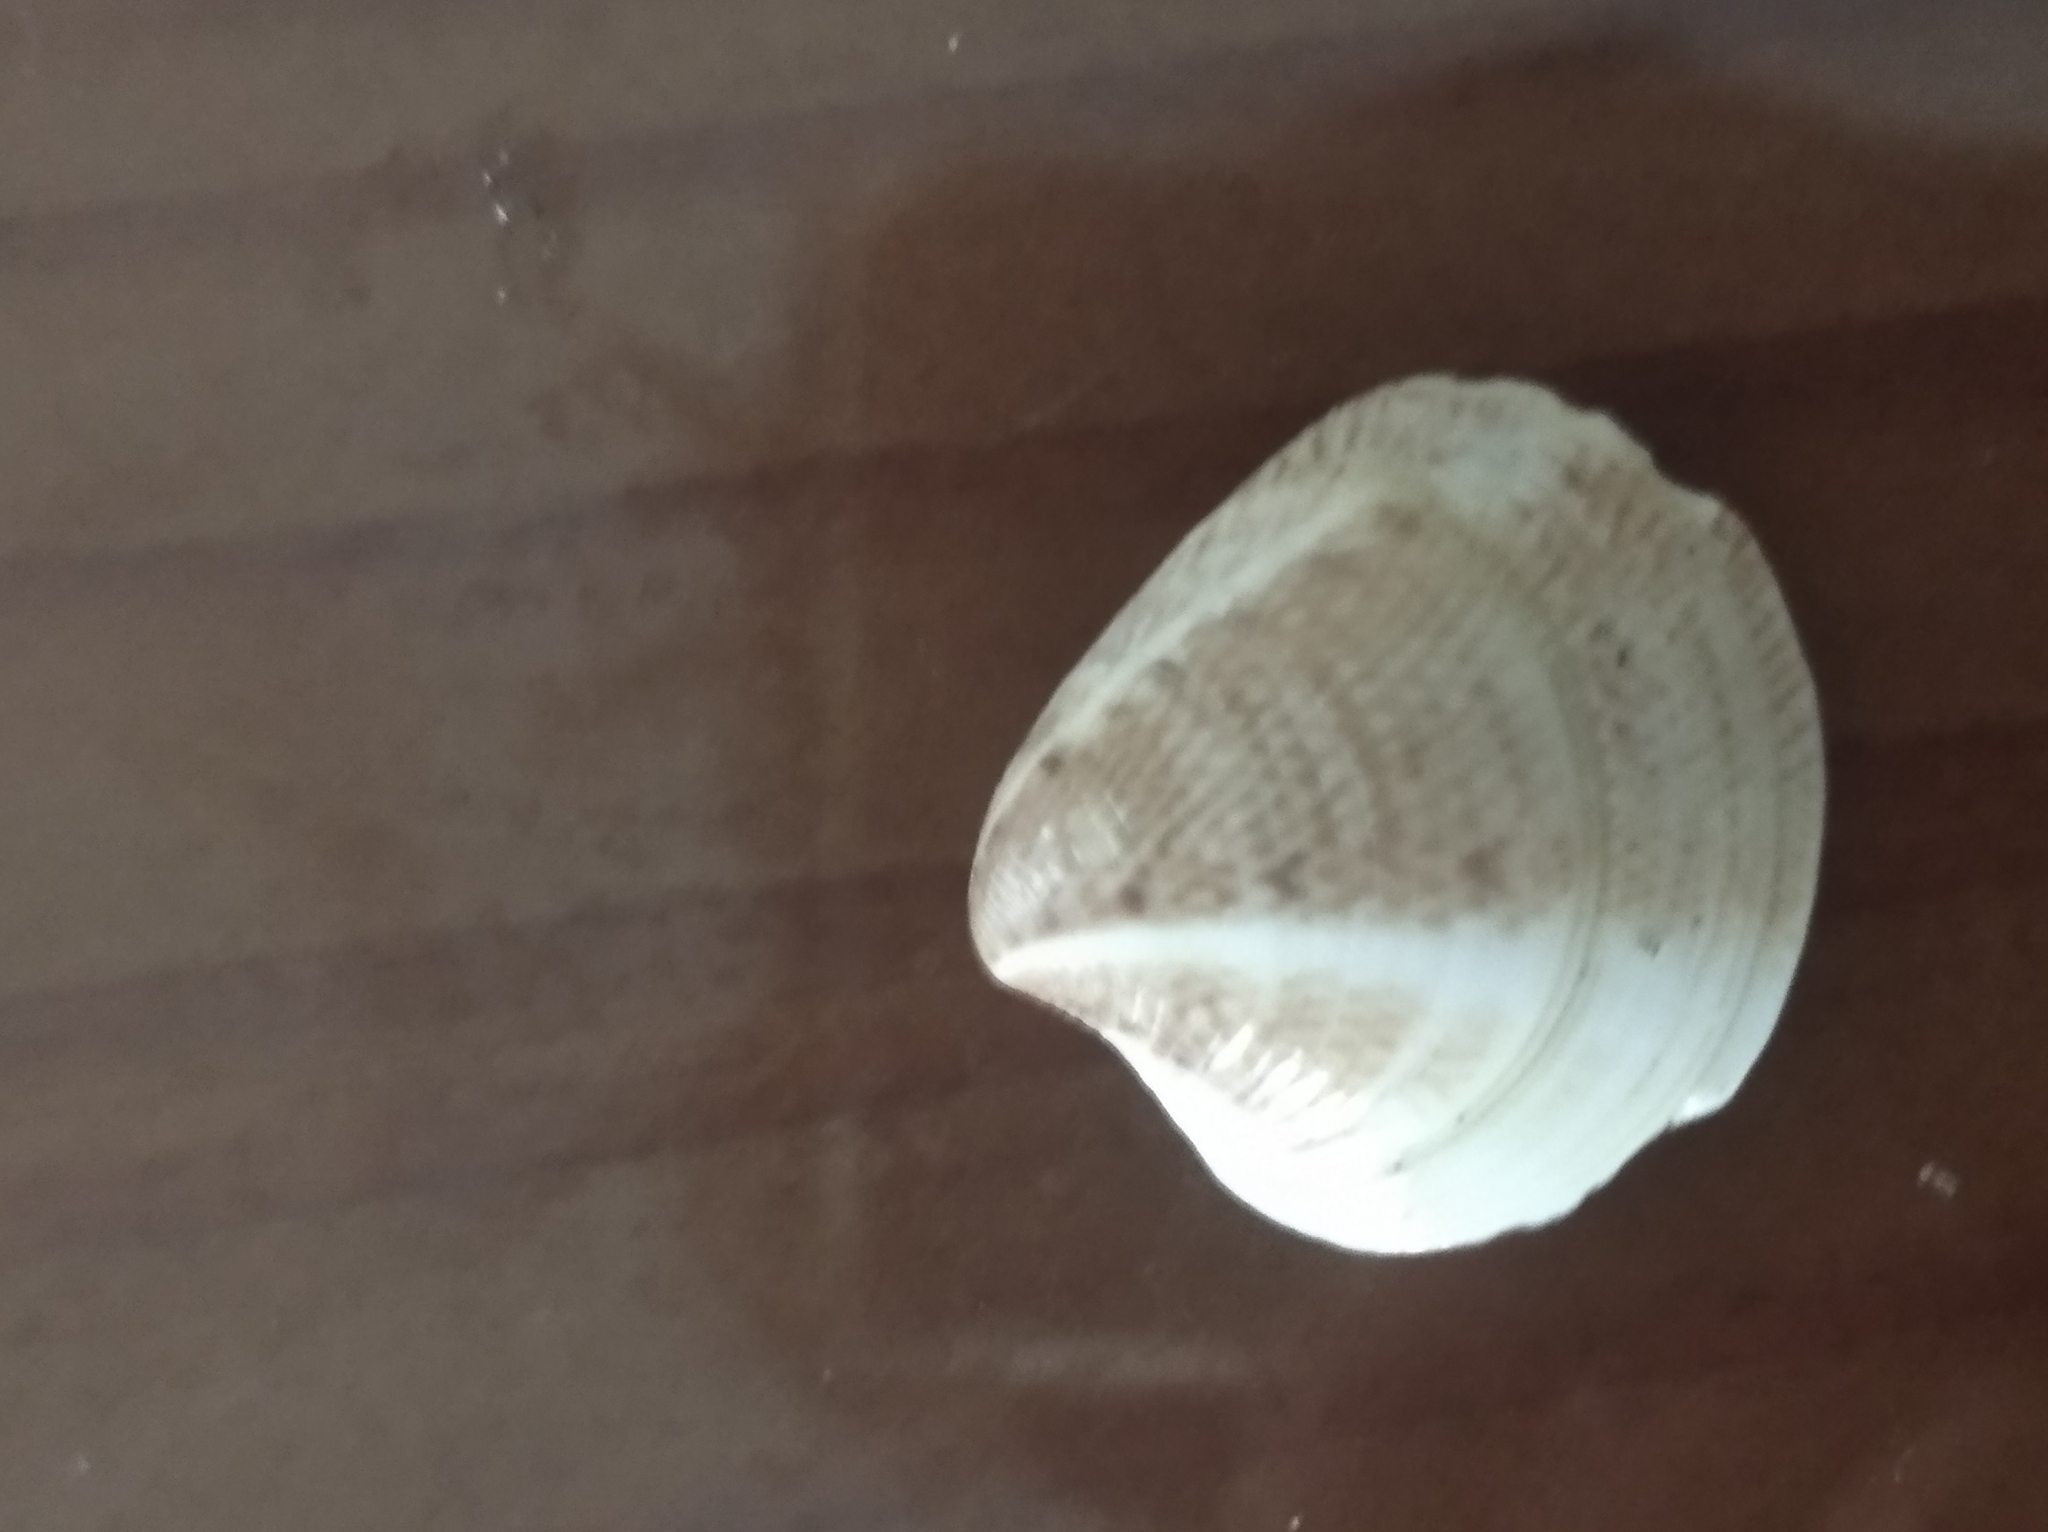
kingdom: Animalia
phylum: Mollusca
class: Bivalvia
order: Venerida
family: Veneridae
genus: Chamelea
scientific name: Chamelea gallina
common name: Chicken venus
